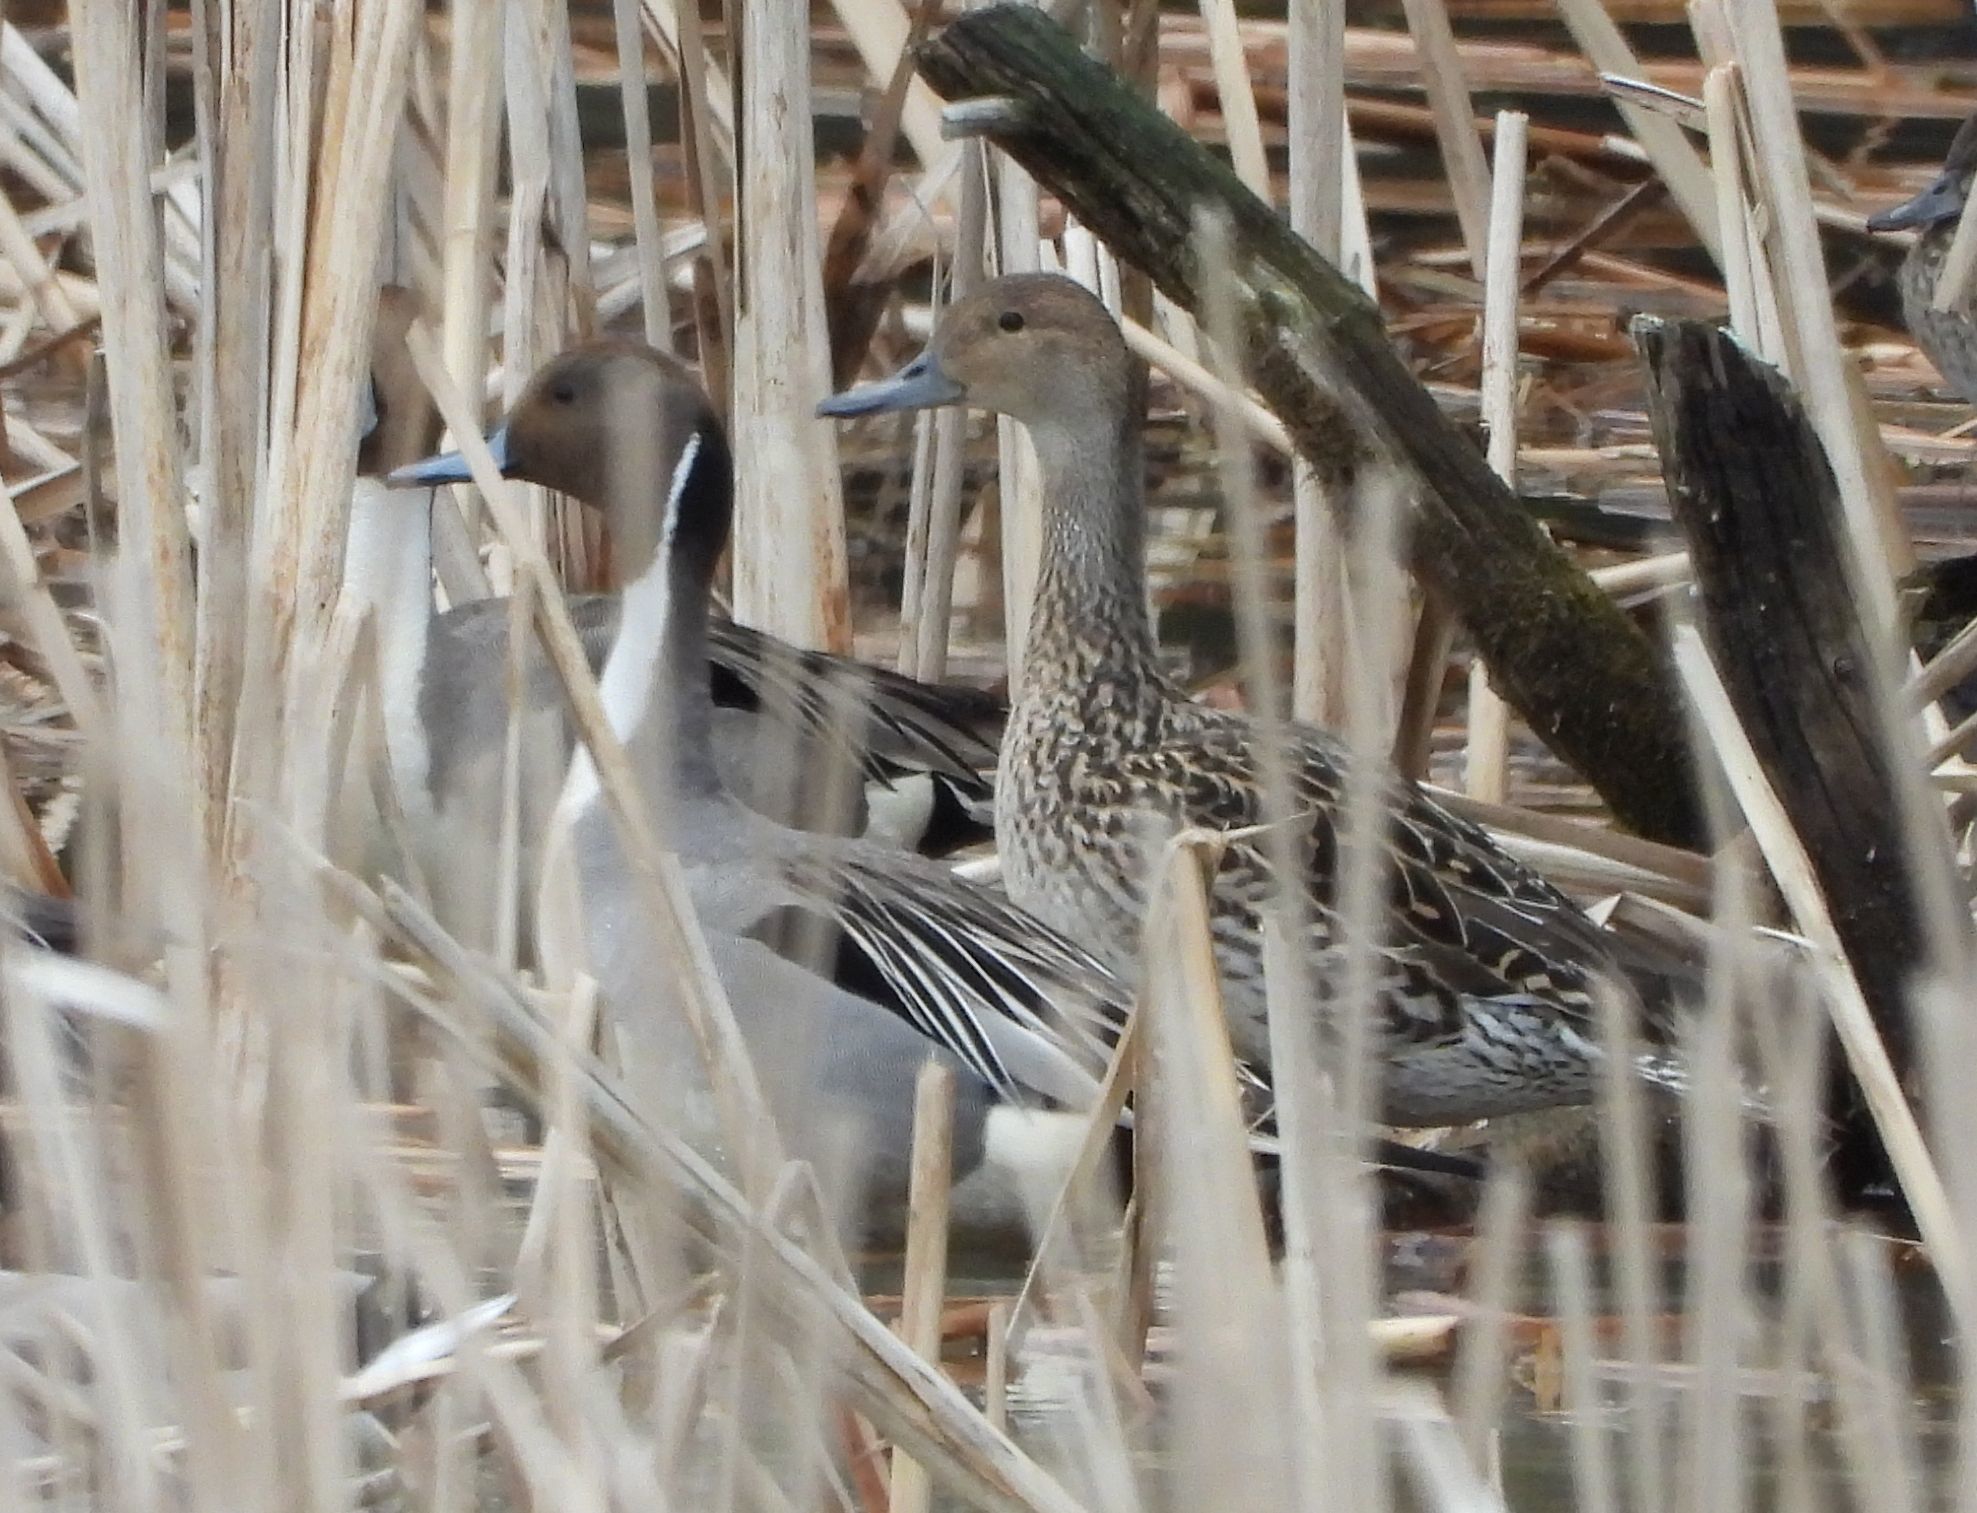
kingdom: Animalia
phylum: Chordata
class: Aves
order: Anseriformes
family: Anatidae
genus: Anas
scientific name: Anas acuta
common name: Northern pintail
